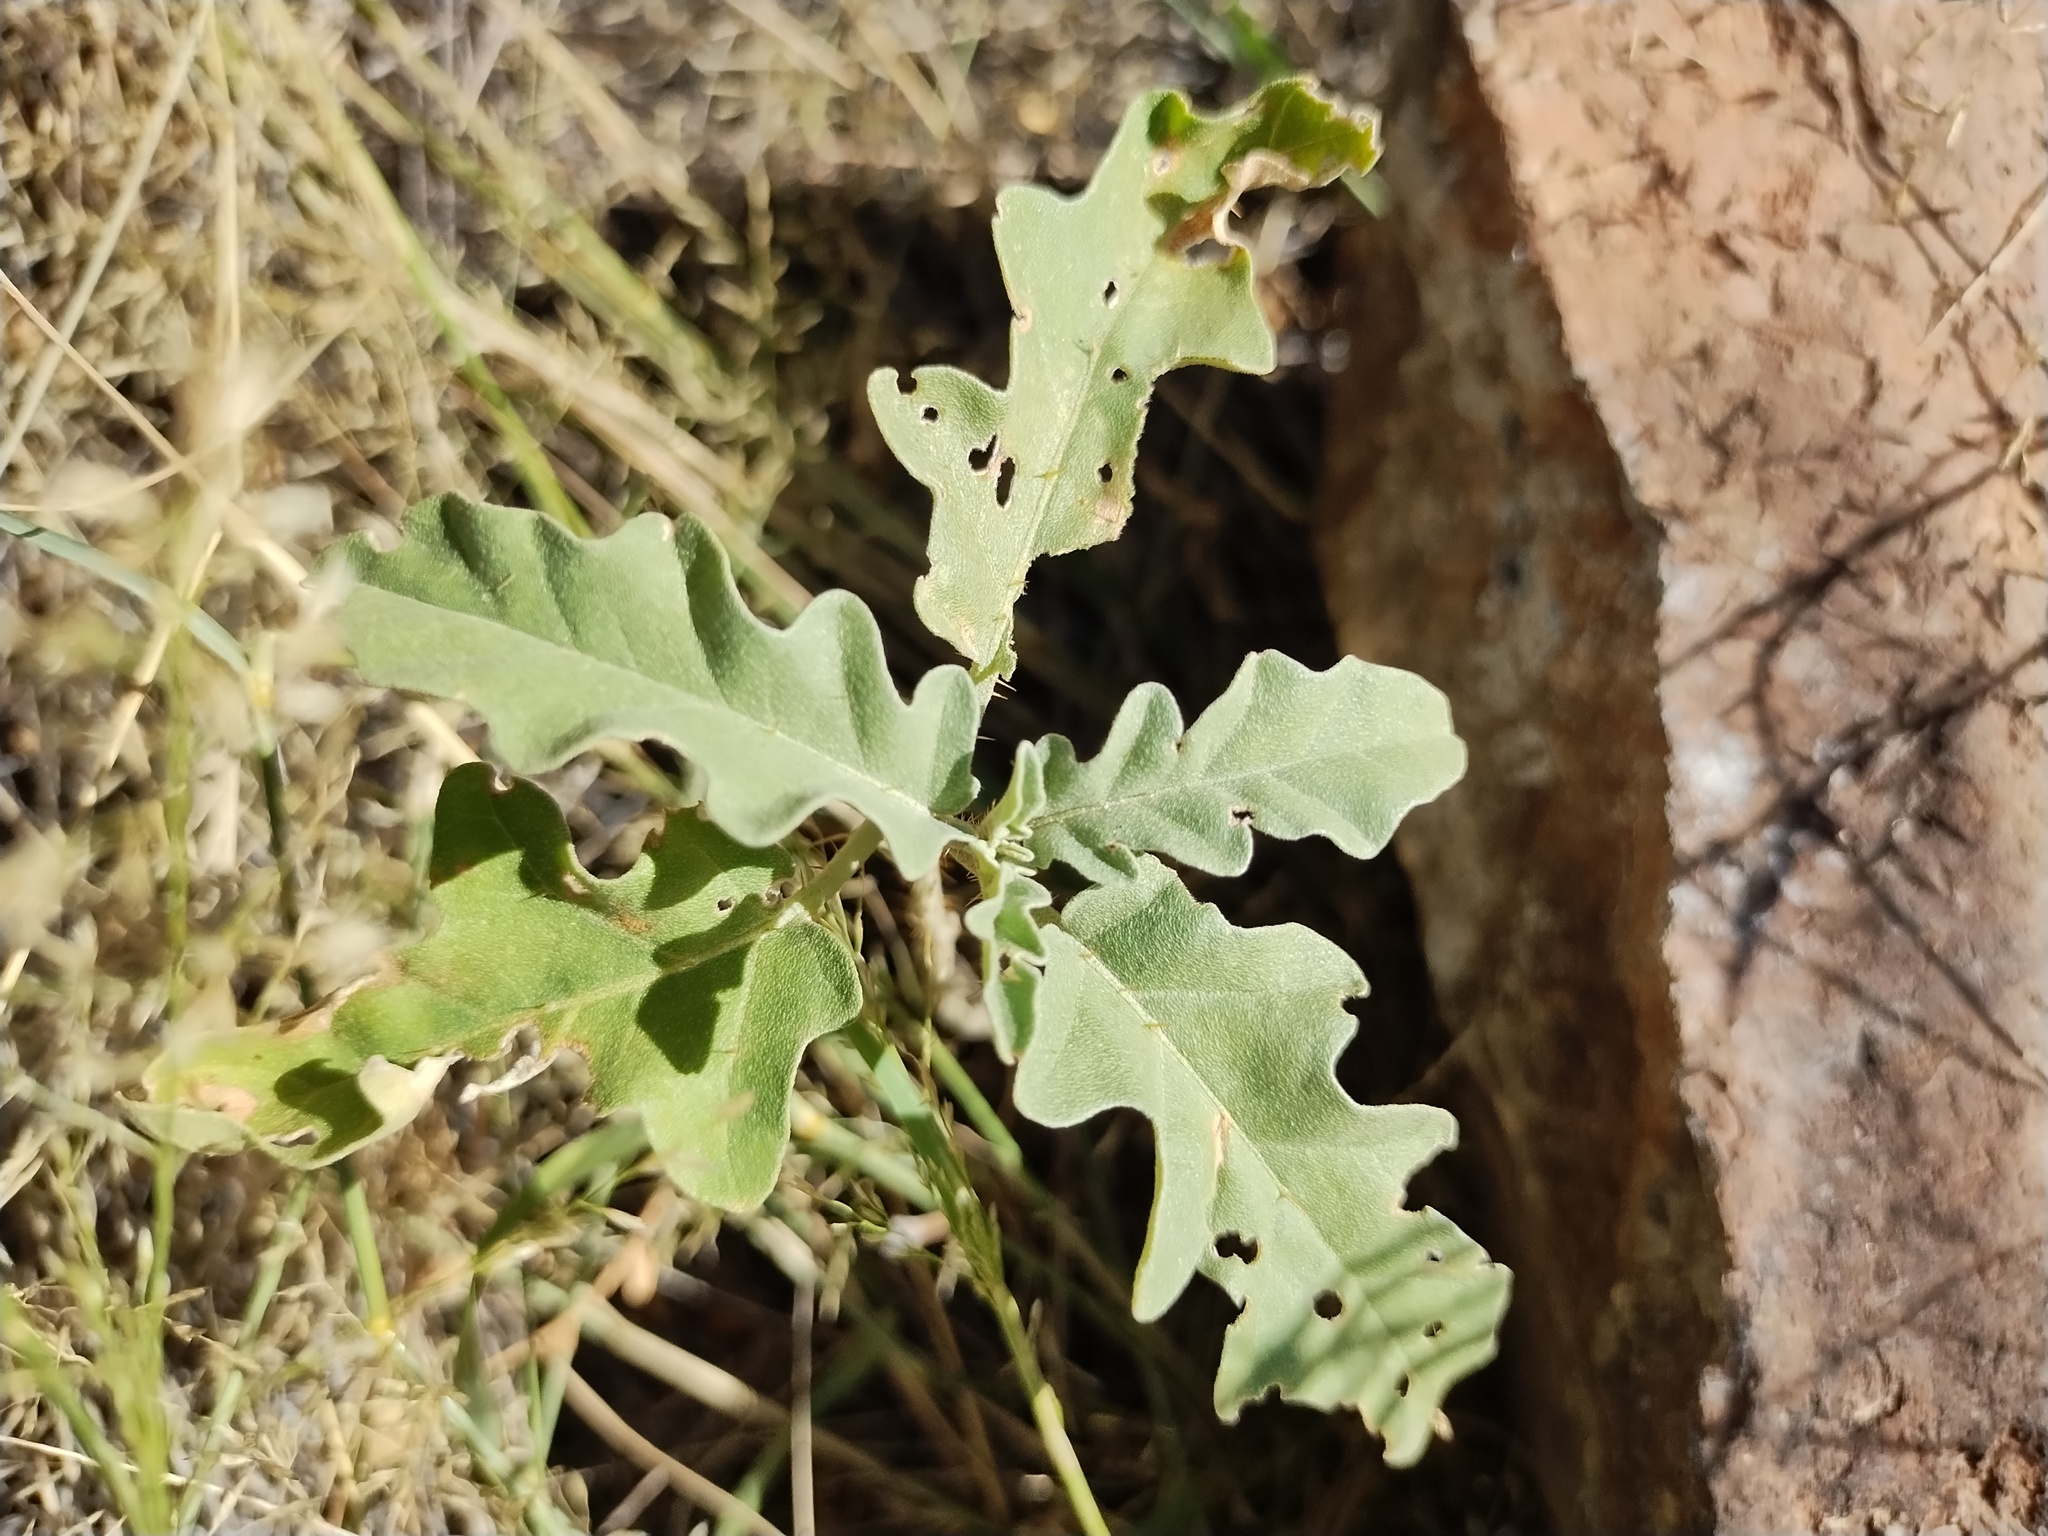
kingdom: Plantae
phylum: Tracheophyta
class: Magnoliopsida
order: Solanales
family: Solanaceae
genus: Solanum
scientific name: Solanum elaeagnifolium
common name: Silverleaf nightshade
